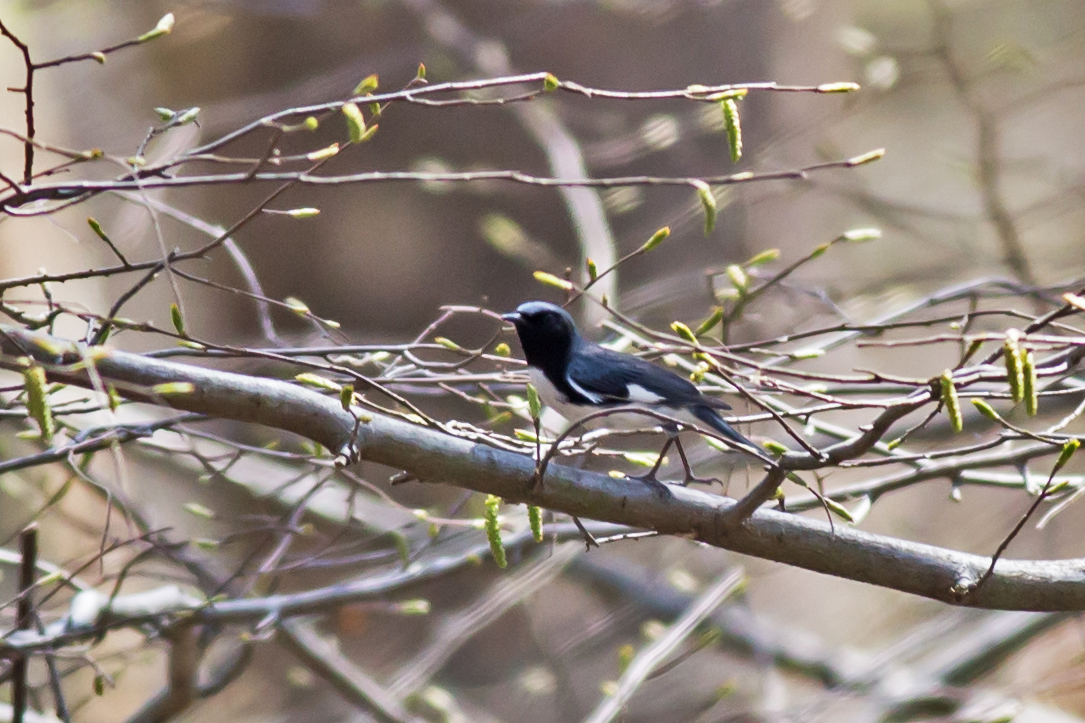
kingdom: Animalia
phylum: Chordata
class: Aves
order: Passeriformes
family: Parulidae
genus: Setophaga
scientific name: Setophaga caerulescens
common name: Black-throated blue warbler
